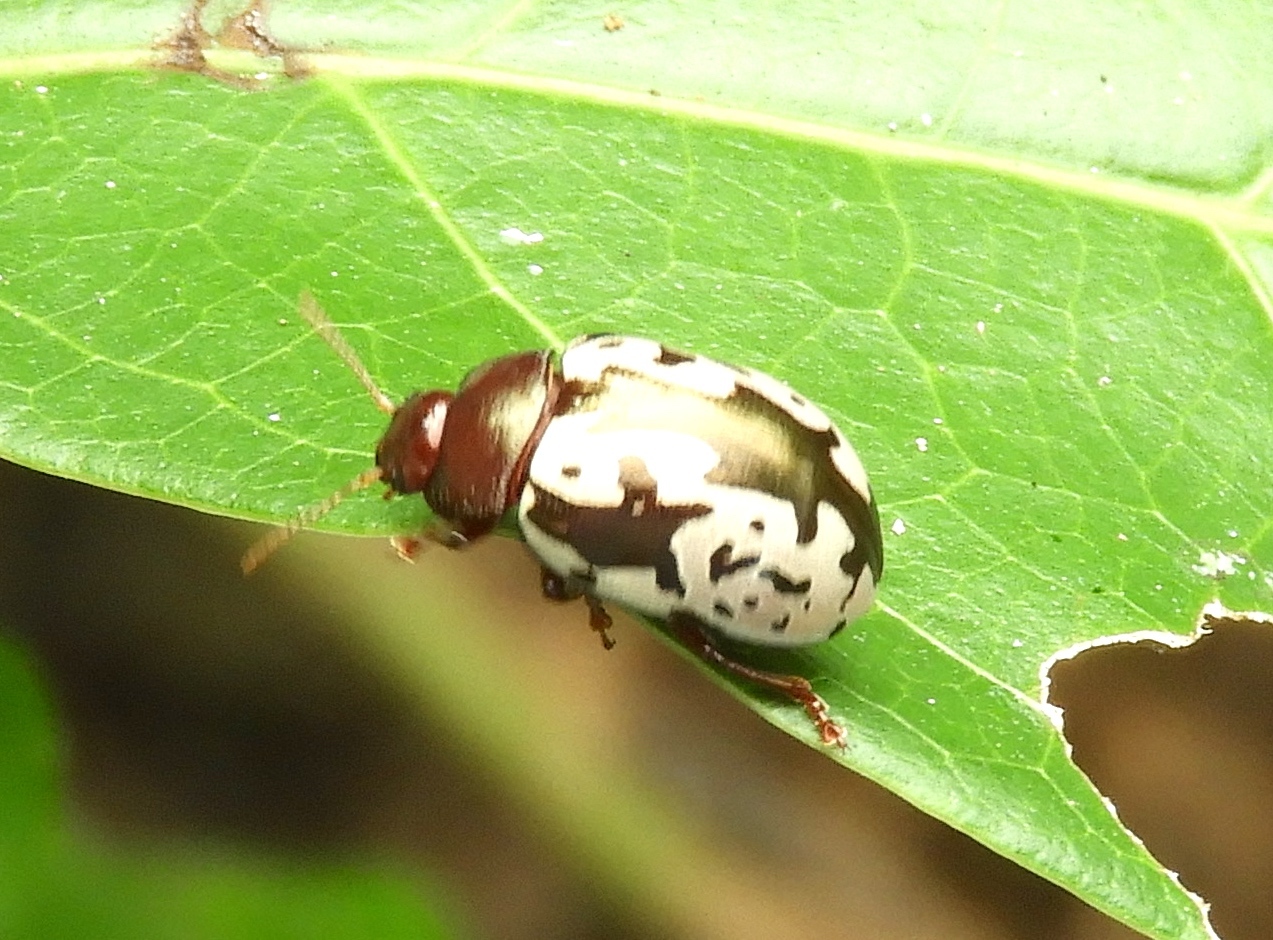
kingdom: Animalia
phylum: Arthropoda
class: Insecta
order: Coleoptera
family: Chrysomelidae
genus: Calligrapha
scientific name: Calligrapha intermedia
